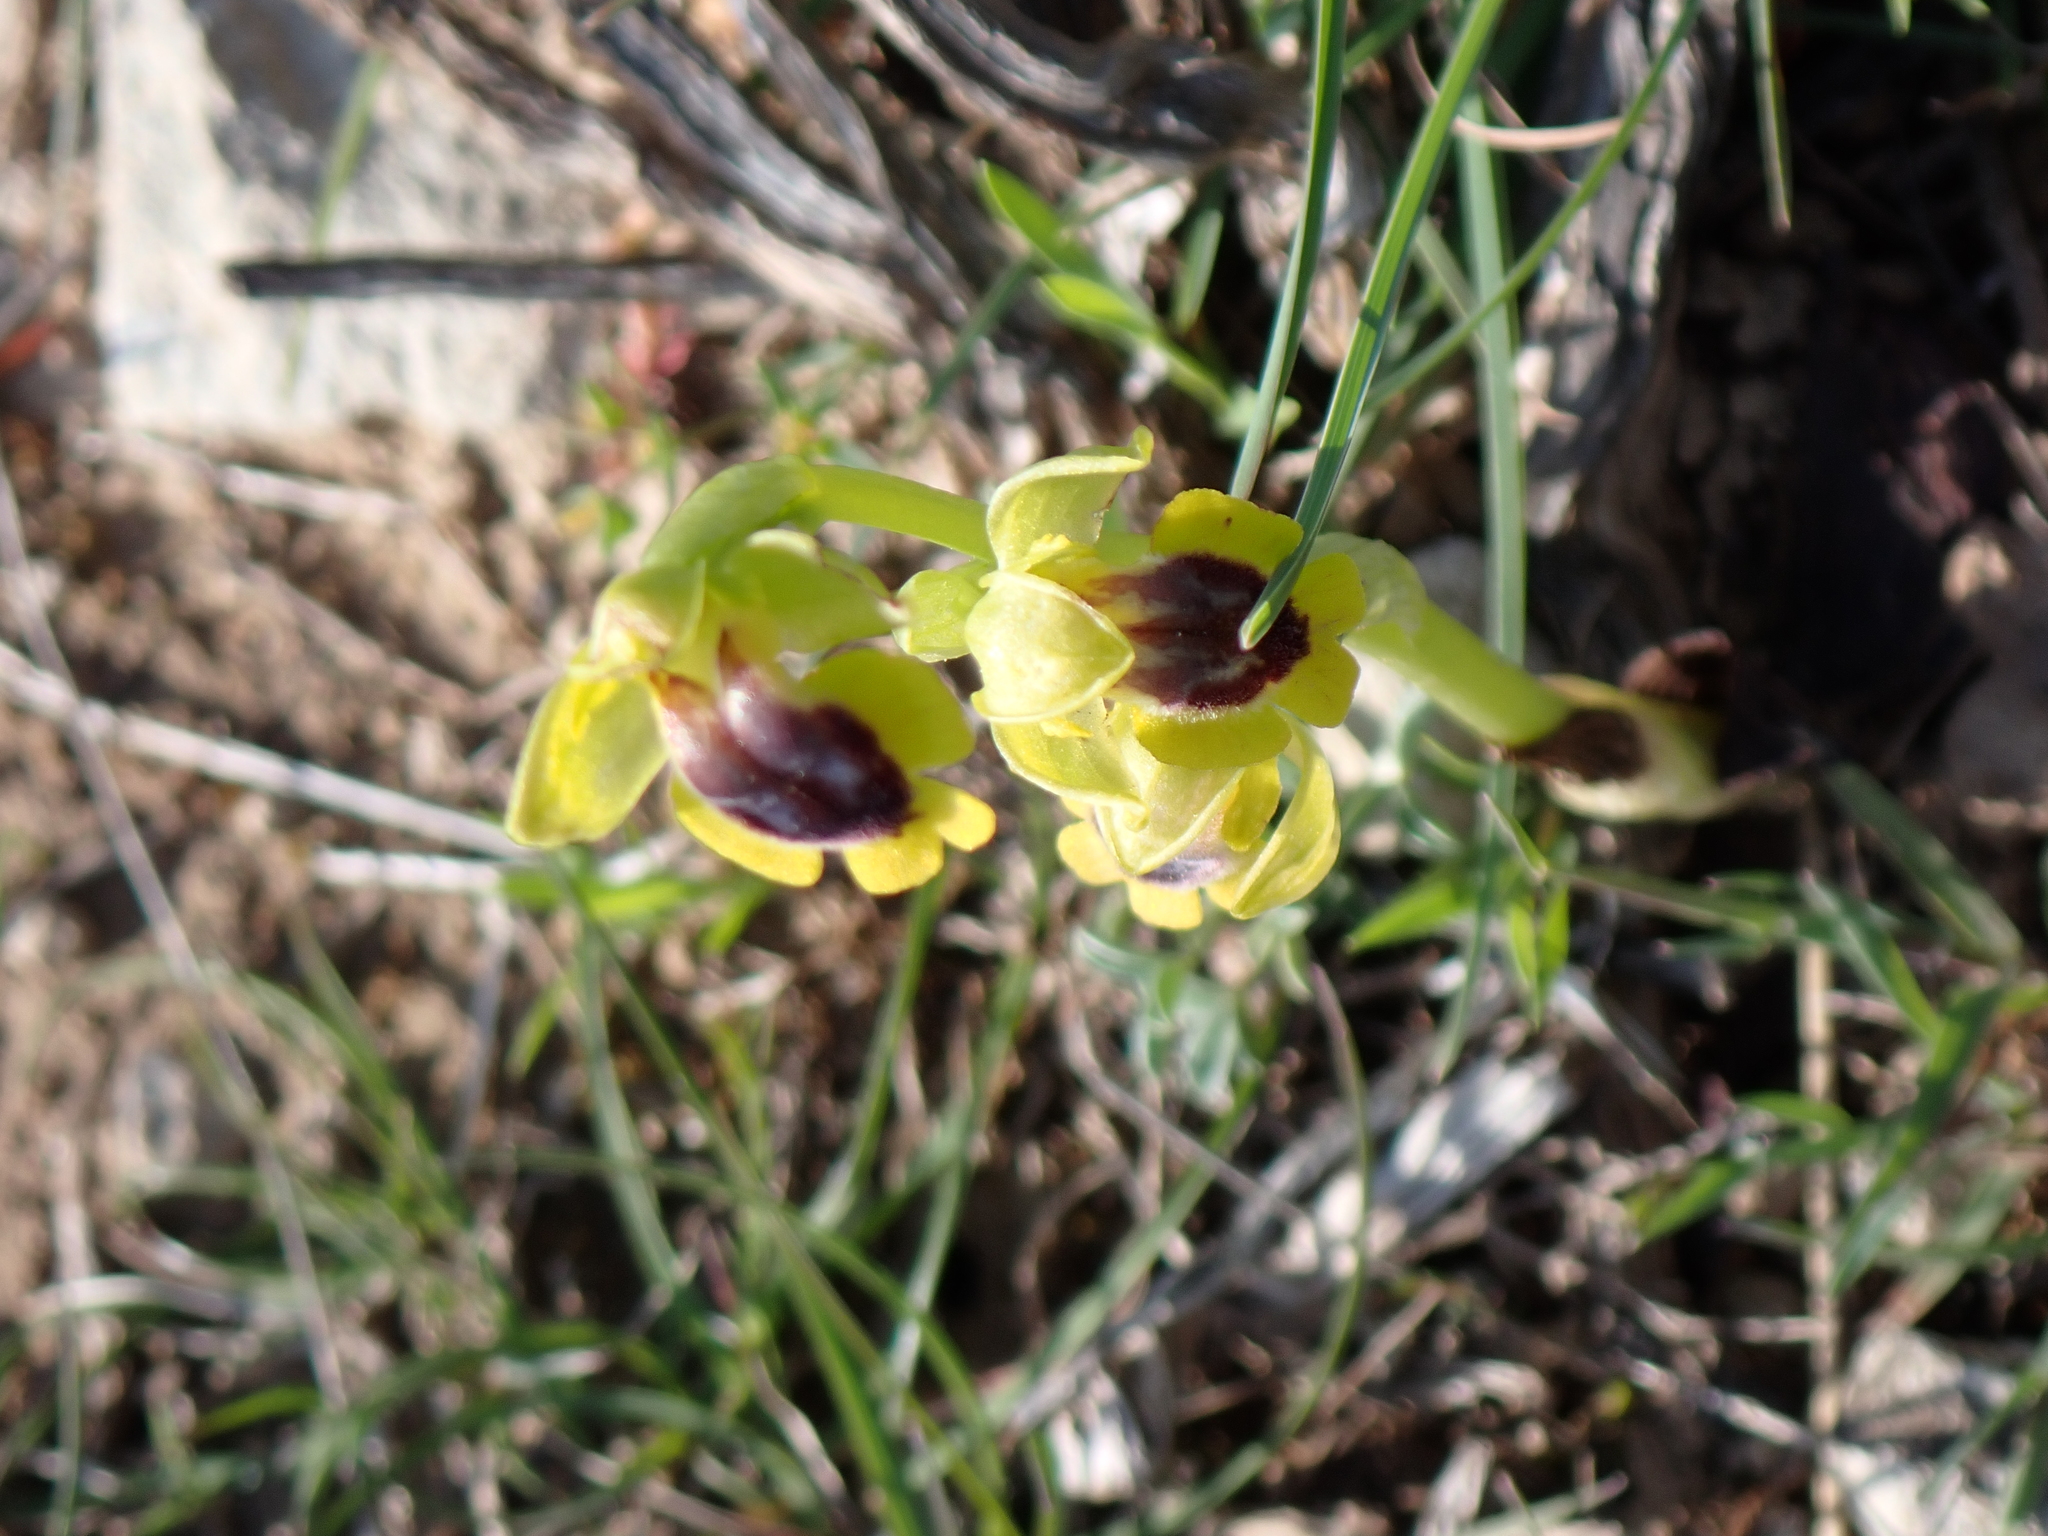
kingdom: Plantae
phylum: Tracheophyta
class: Liliopsida
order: Asparagales
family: Orchidaceae
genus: Ophrys
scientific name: Ophrys lutea
